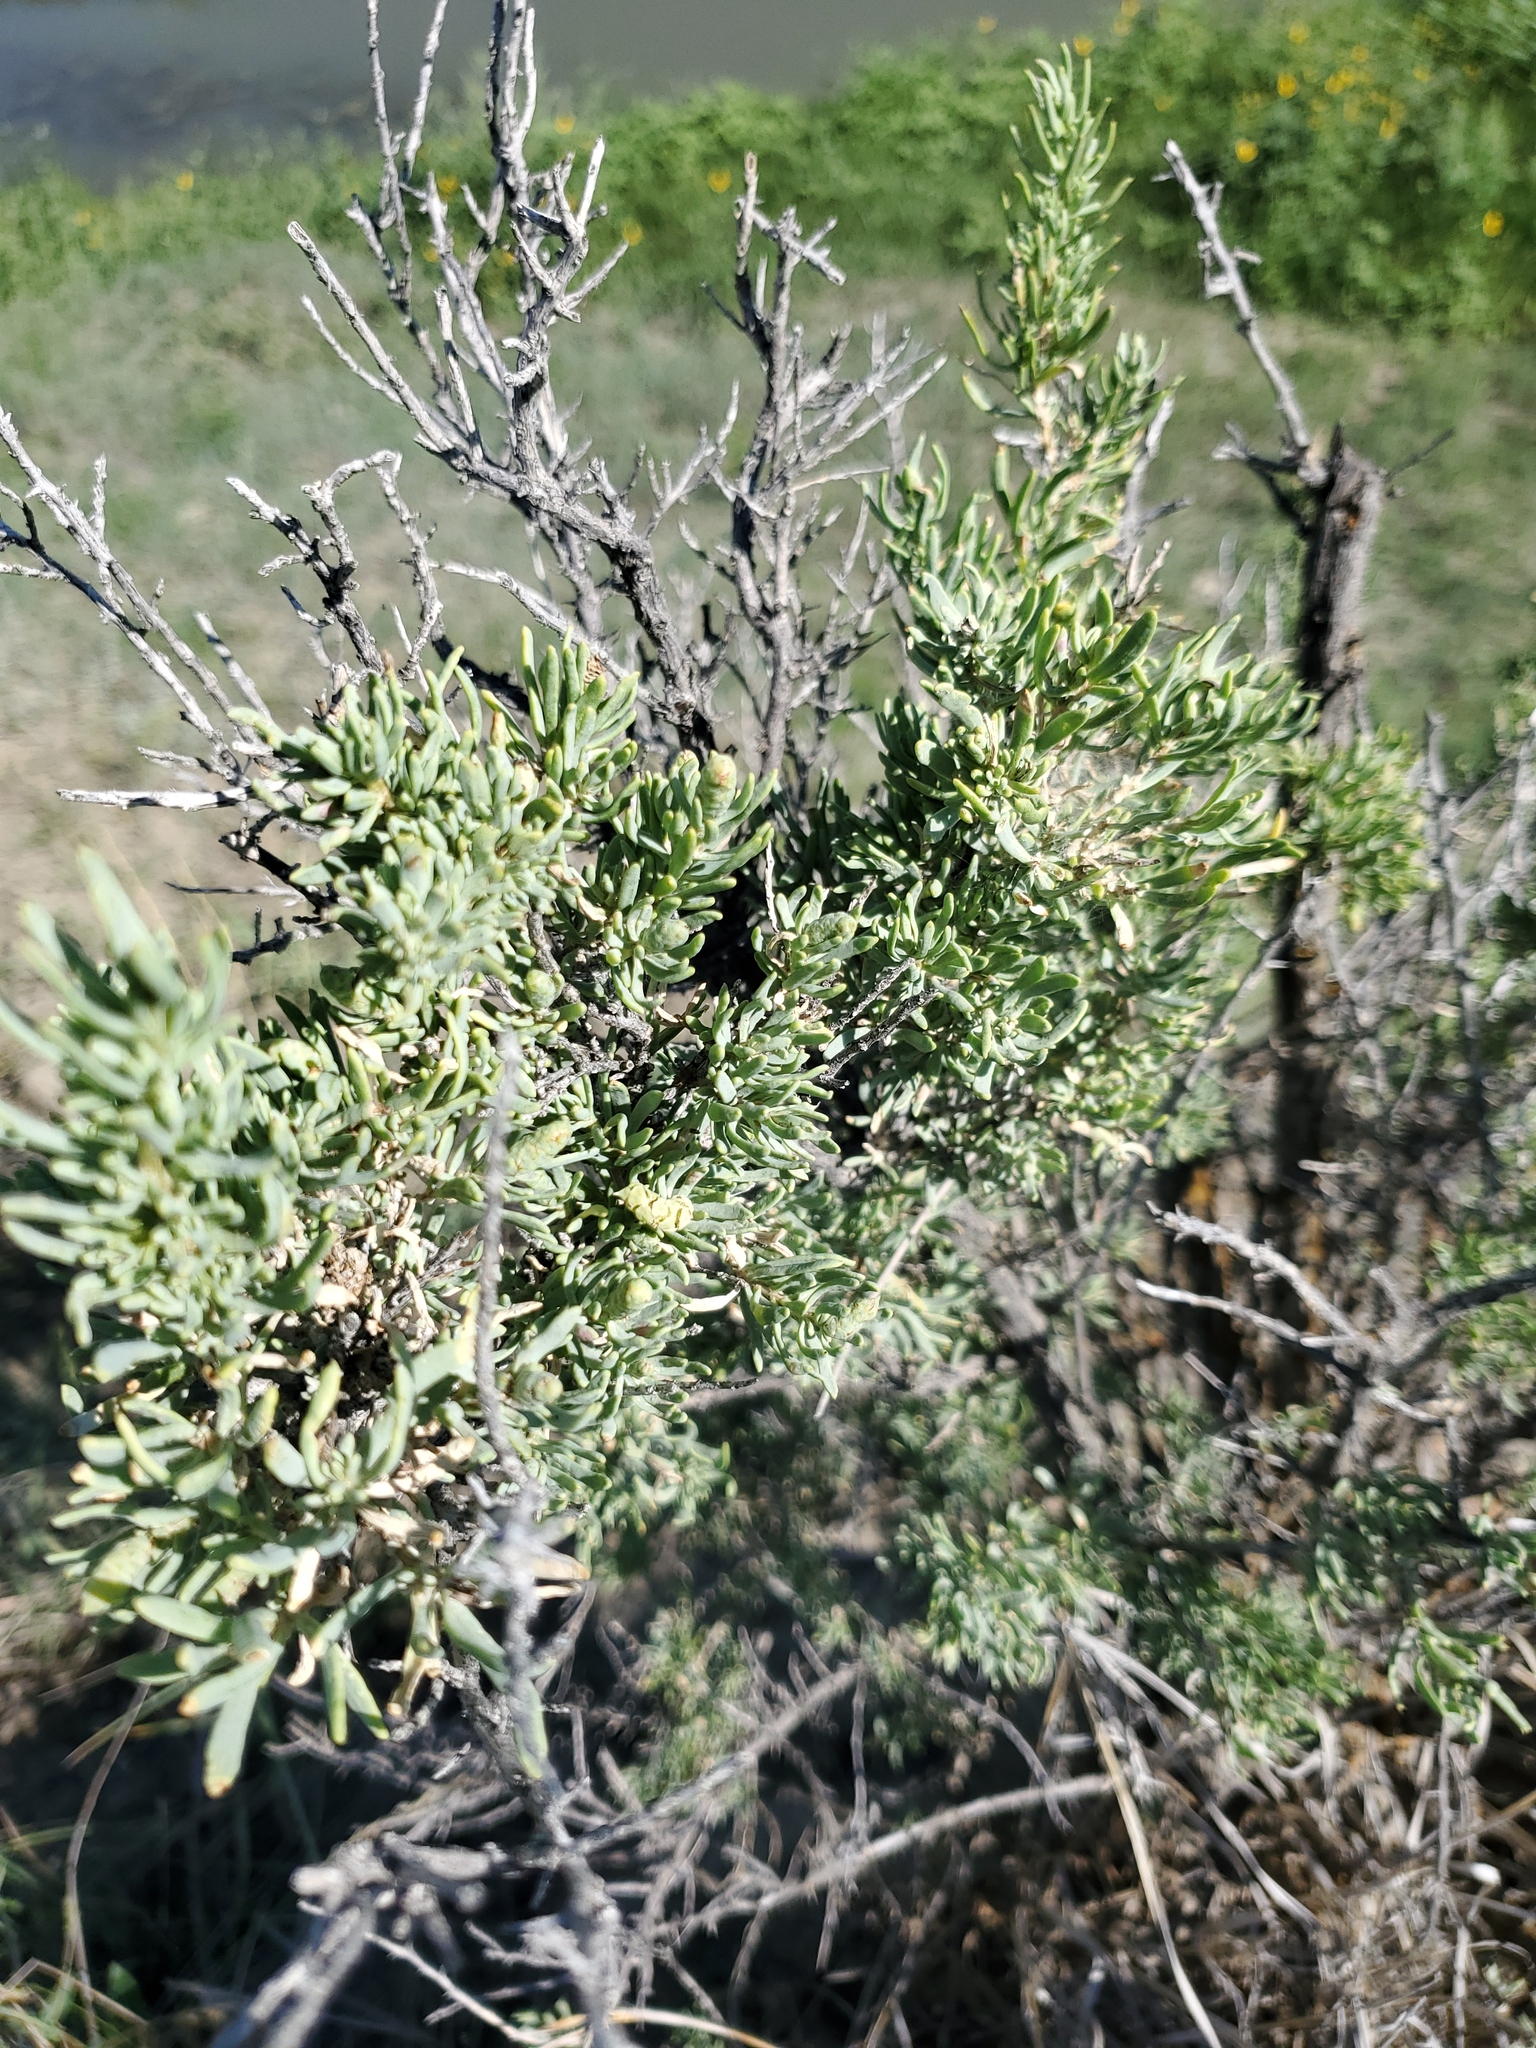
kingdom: Plantae
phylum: Tracheophyta
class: Magnoliopsida
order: Caryophyllales
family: Sarcobataceae
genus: Sarcobatus
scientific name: Sarcobatus vermiculatus
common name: Greasewood
